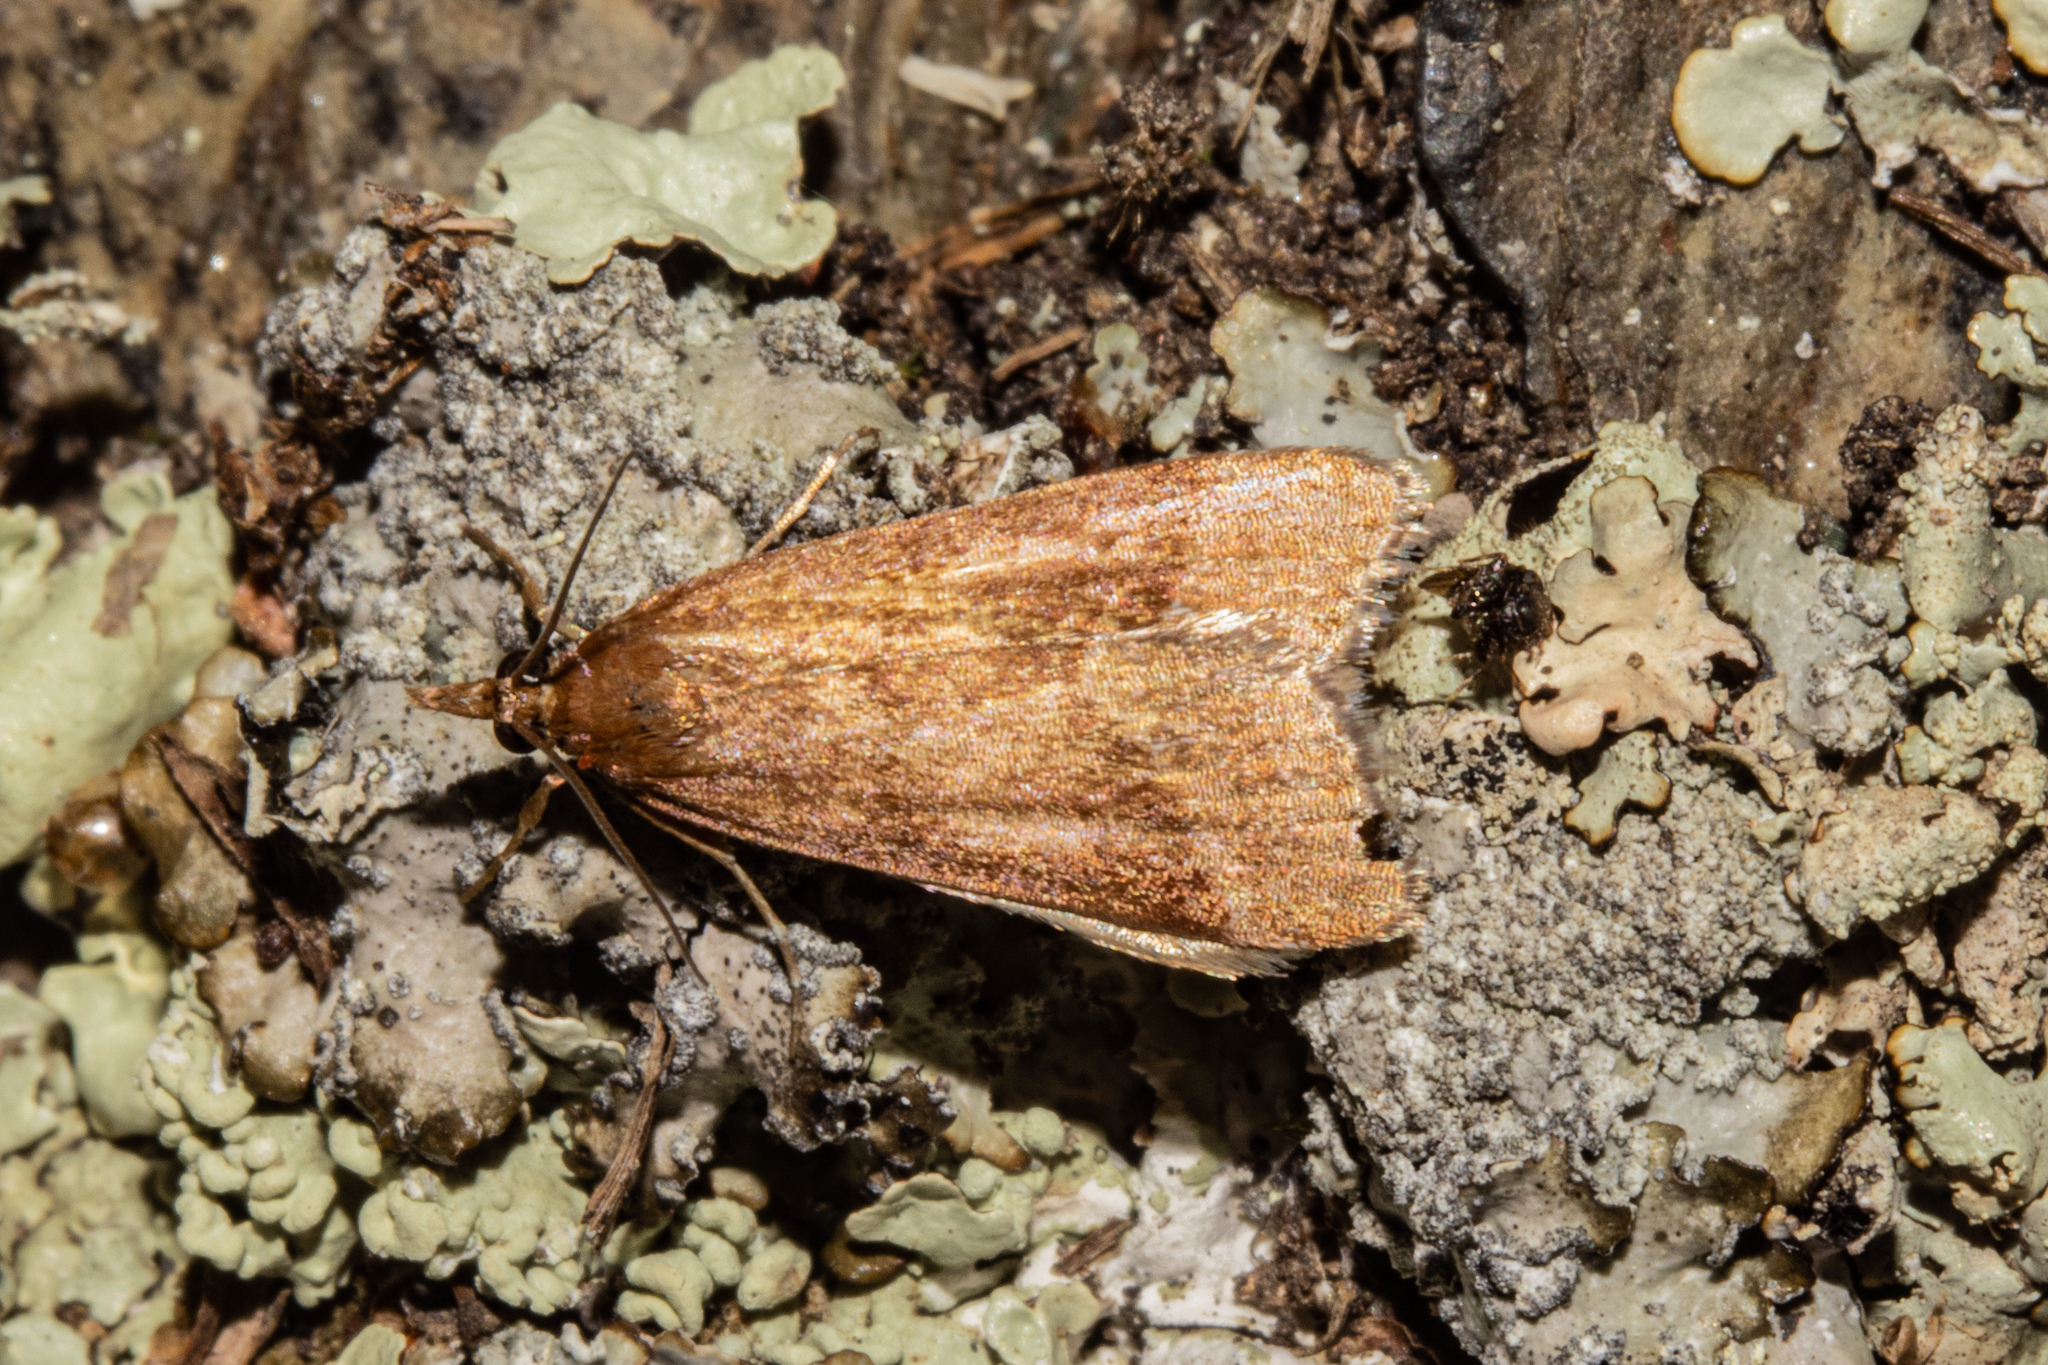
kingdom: Animalia
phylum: Arthropoda
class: Insecta
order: Lepidoptera
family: Crambidae
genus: Eudonia
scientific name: Eudonia feredayi
